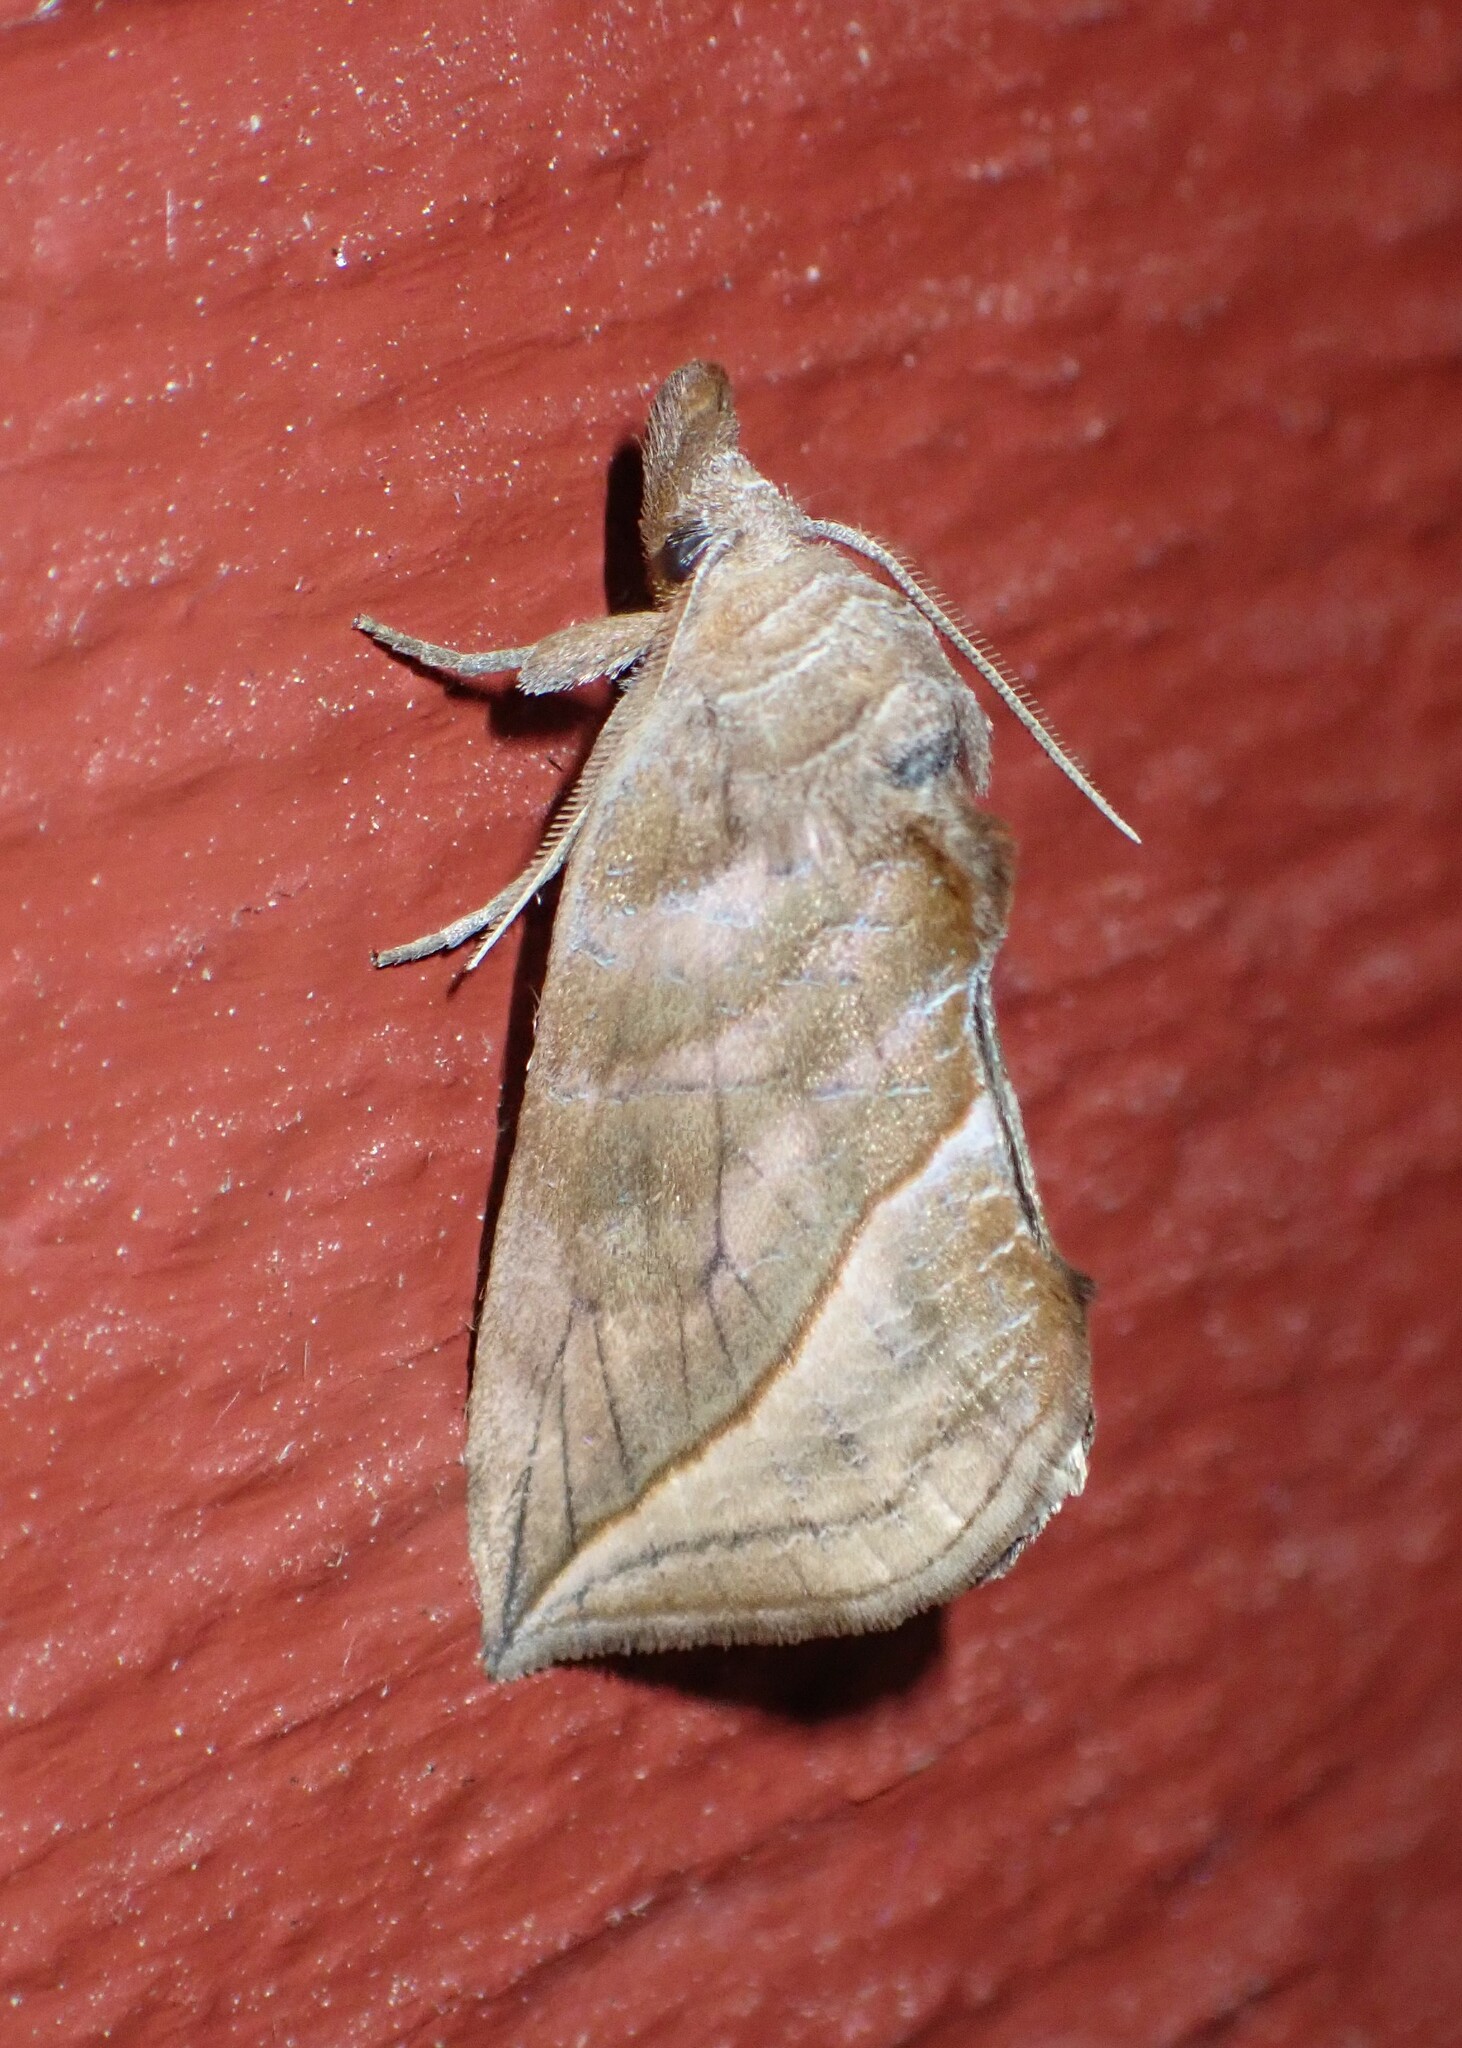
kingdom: Animalia
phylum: Arthropoda
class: Insecta
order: Lepidoptera
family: Erebidae
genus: Calyptra
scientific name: Calyptra canadensis
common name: Canadian owlet
